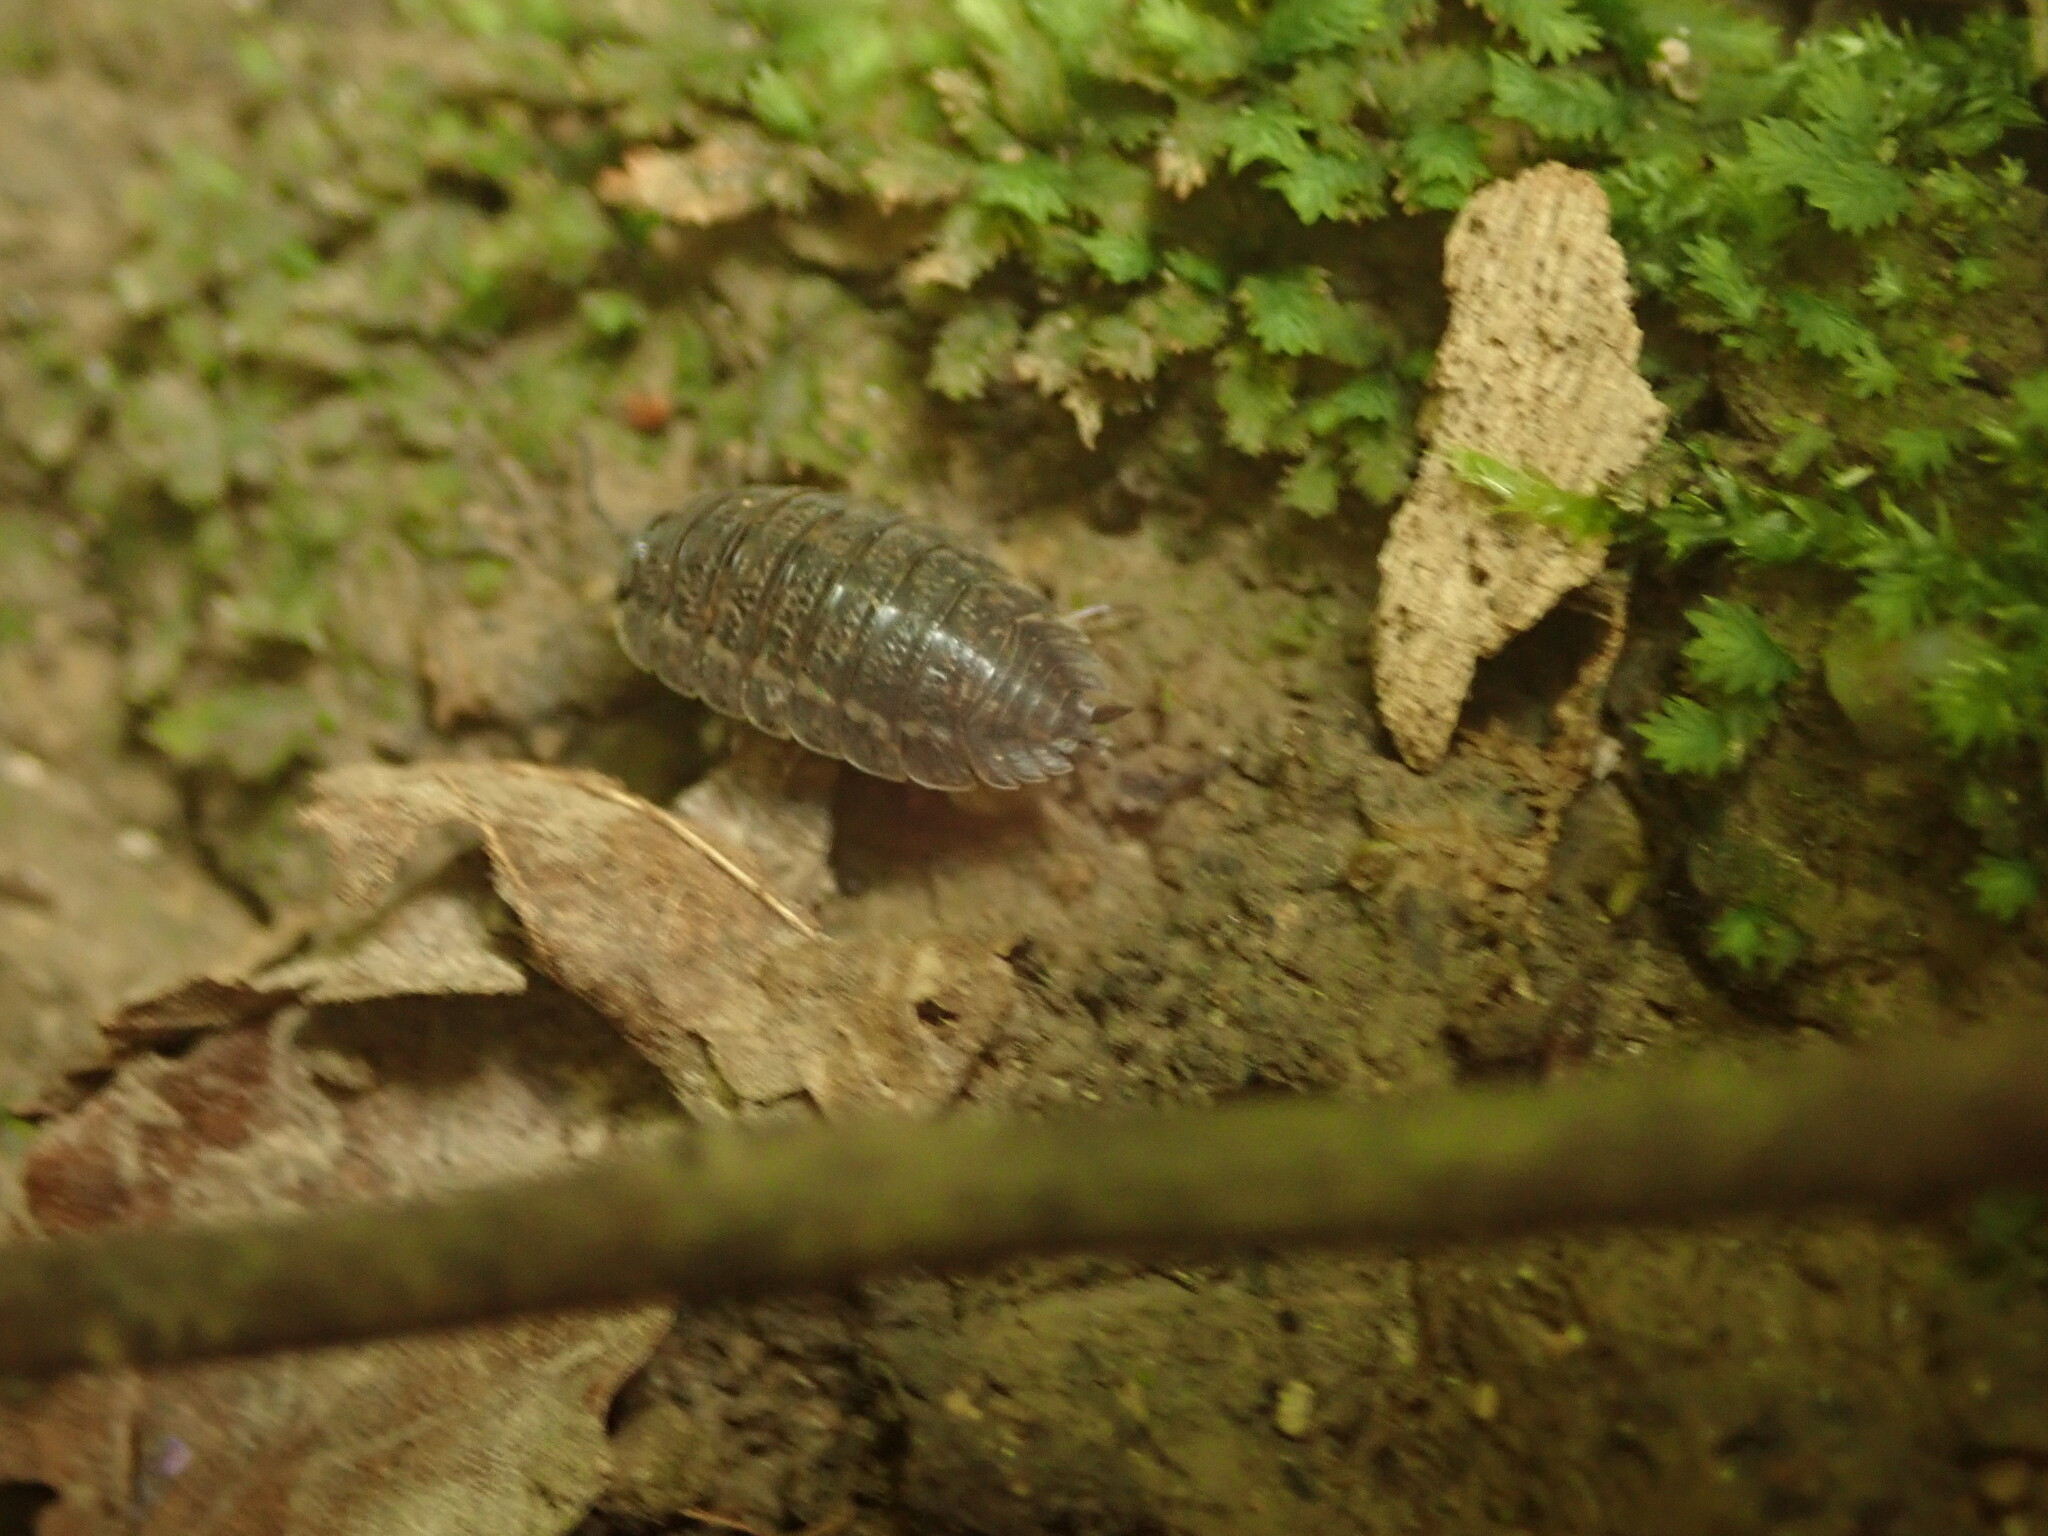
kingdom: Animalia
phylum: Arthropoda
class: Malacostraca
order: Isopoda
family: Trachelipodidae
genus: Trachelipus
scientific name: Trachelipus rathkii
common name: Isopod
